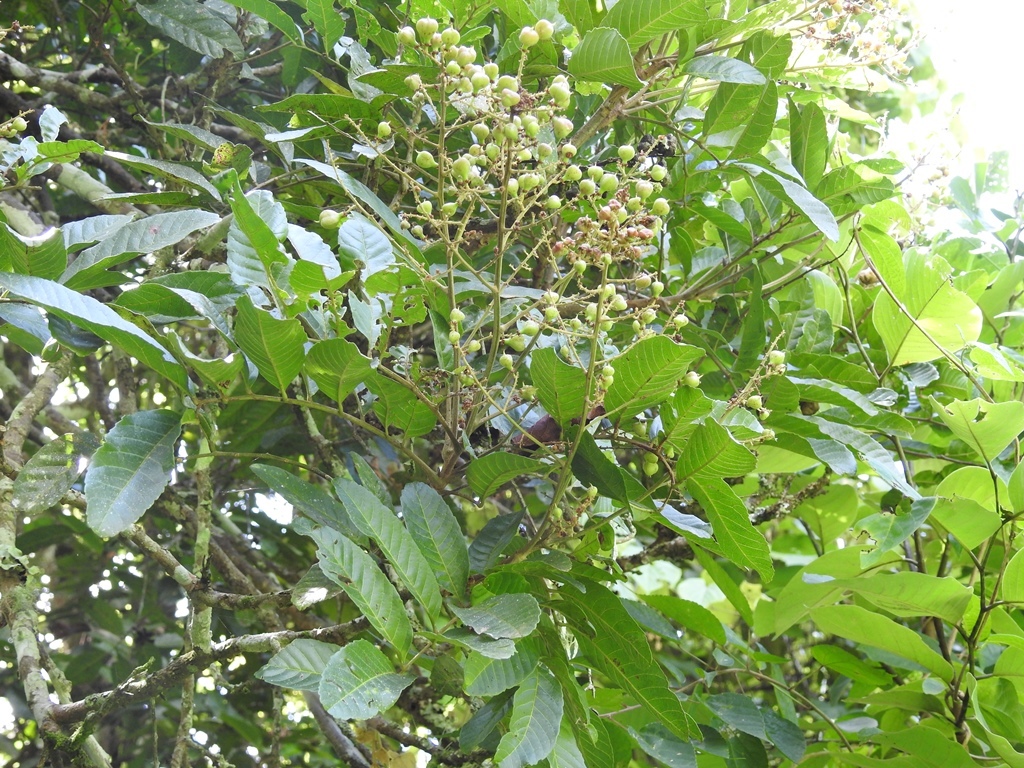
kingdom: Plantae
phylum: Tracheophyta
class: Magnoliopsida
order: Sapindales
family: Sapindaceae
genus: Cupania
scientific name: Cupania glabra
